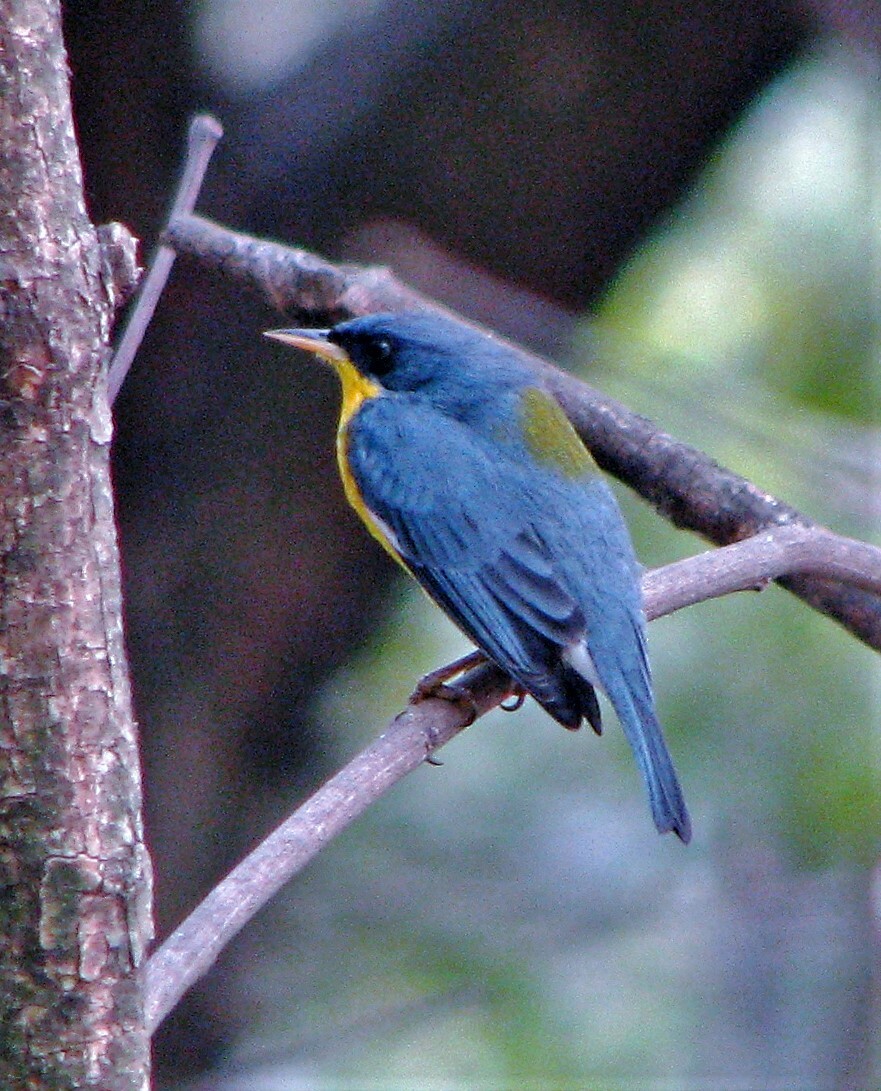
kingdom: Animalia
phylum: Chordata
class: Aves
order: Passeriformes
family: Parulidae
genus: Setophaga
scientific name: Setophaga pitiayumi
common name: Tropical parula
